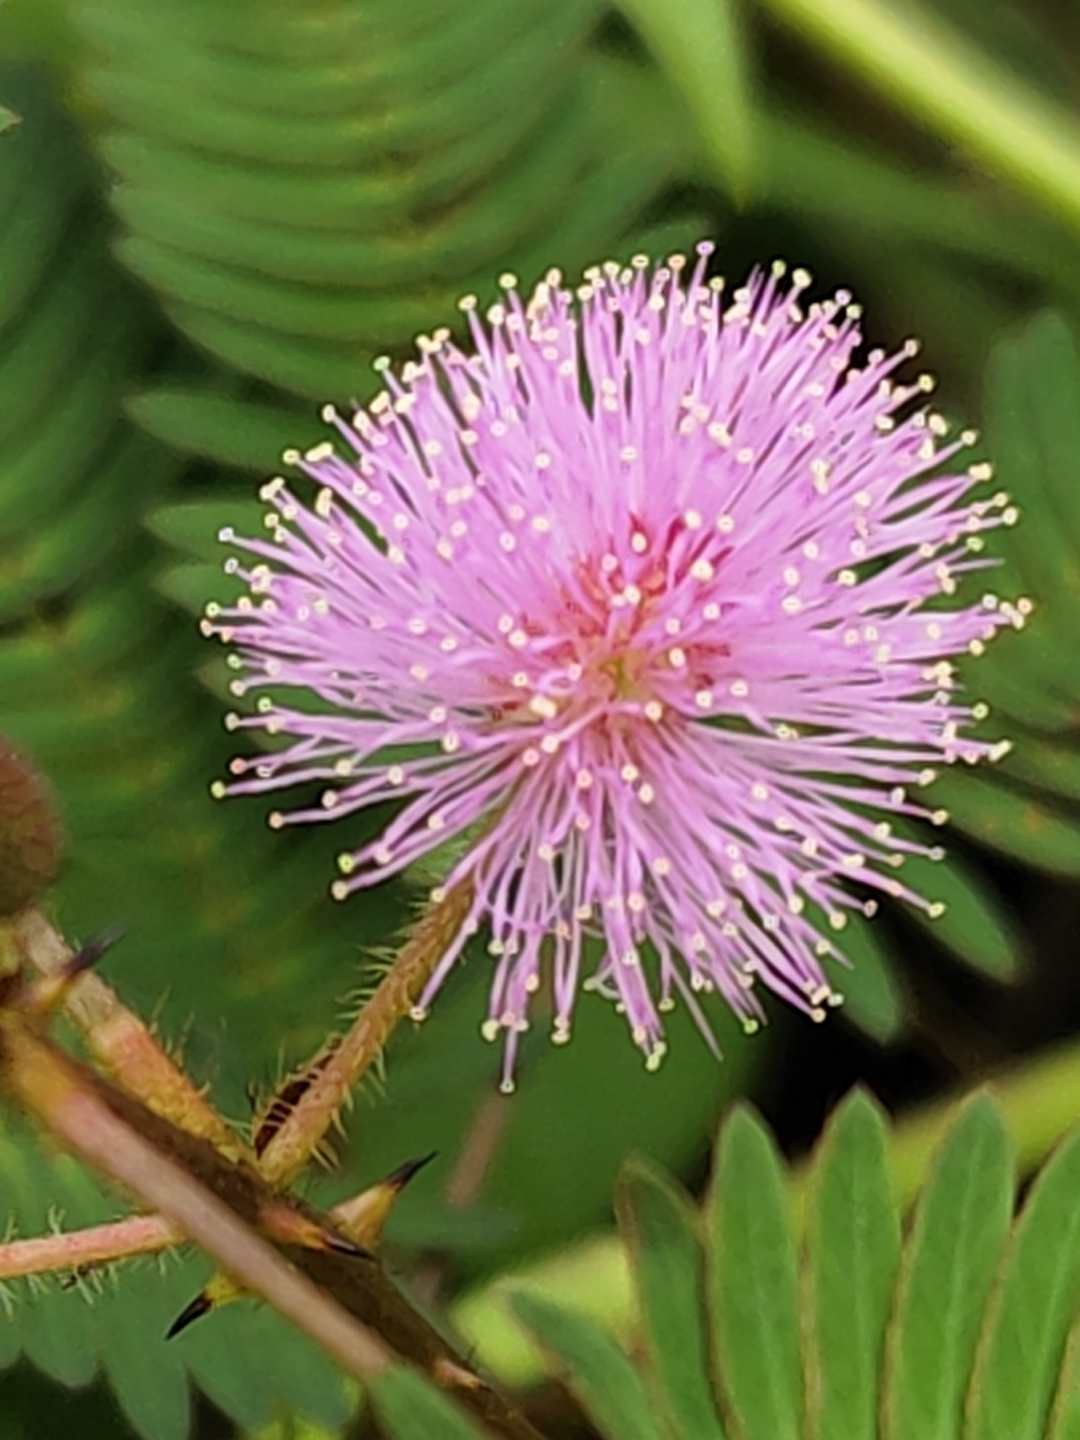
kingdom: Plantae
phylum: Tracheophyta
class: Magnoliopsida
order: Fabales
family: Fabaceae
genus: Mimosa
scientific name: Mimosa pudica
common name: Sensitive plant
